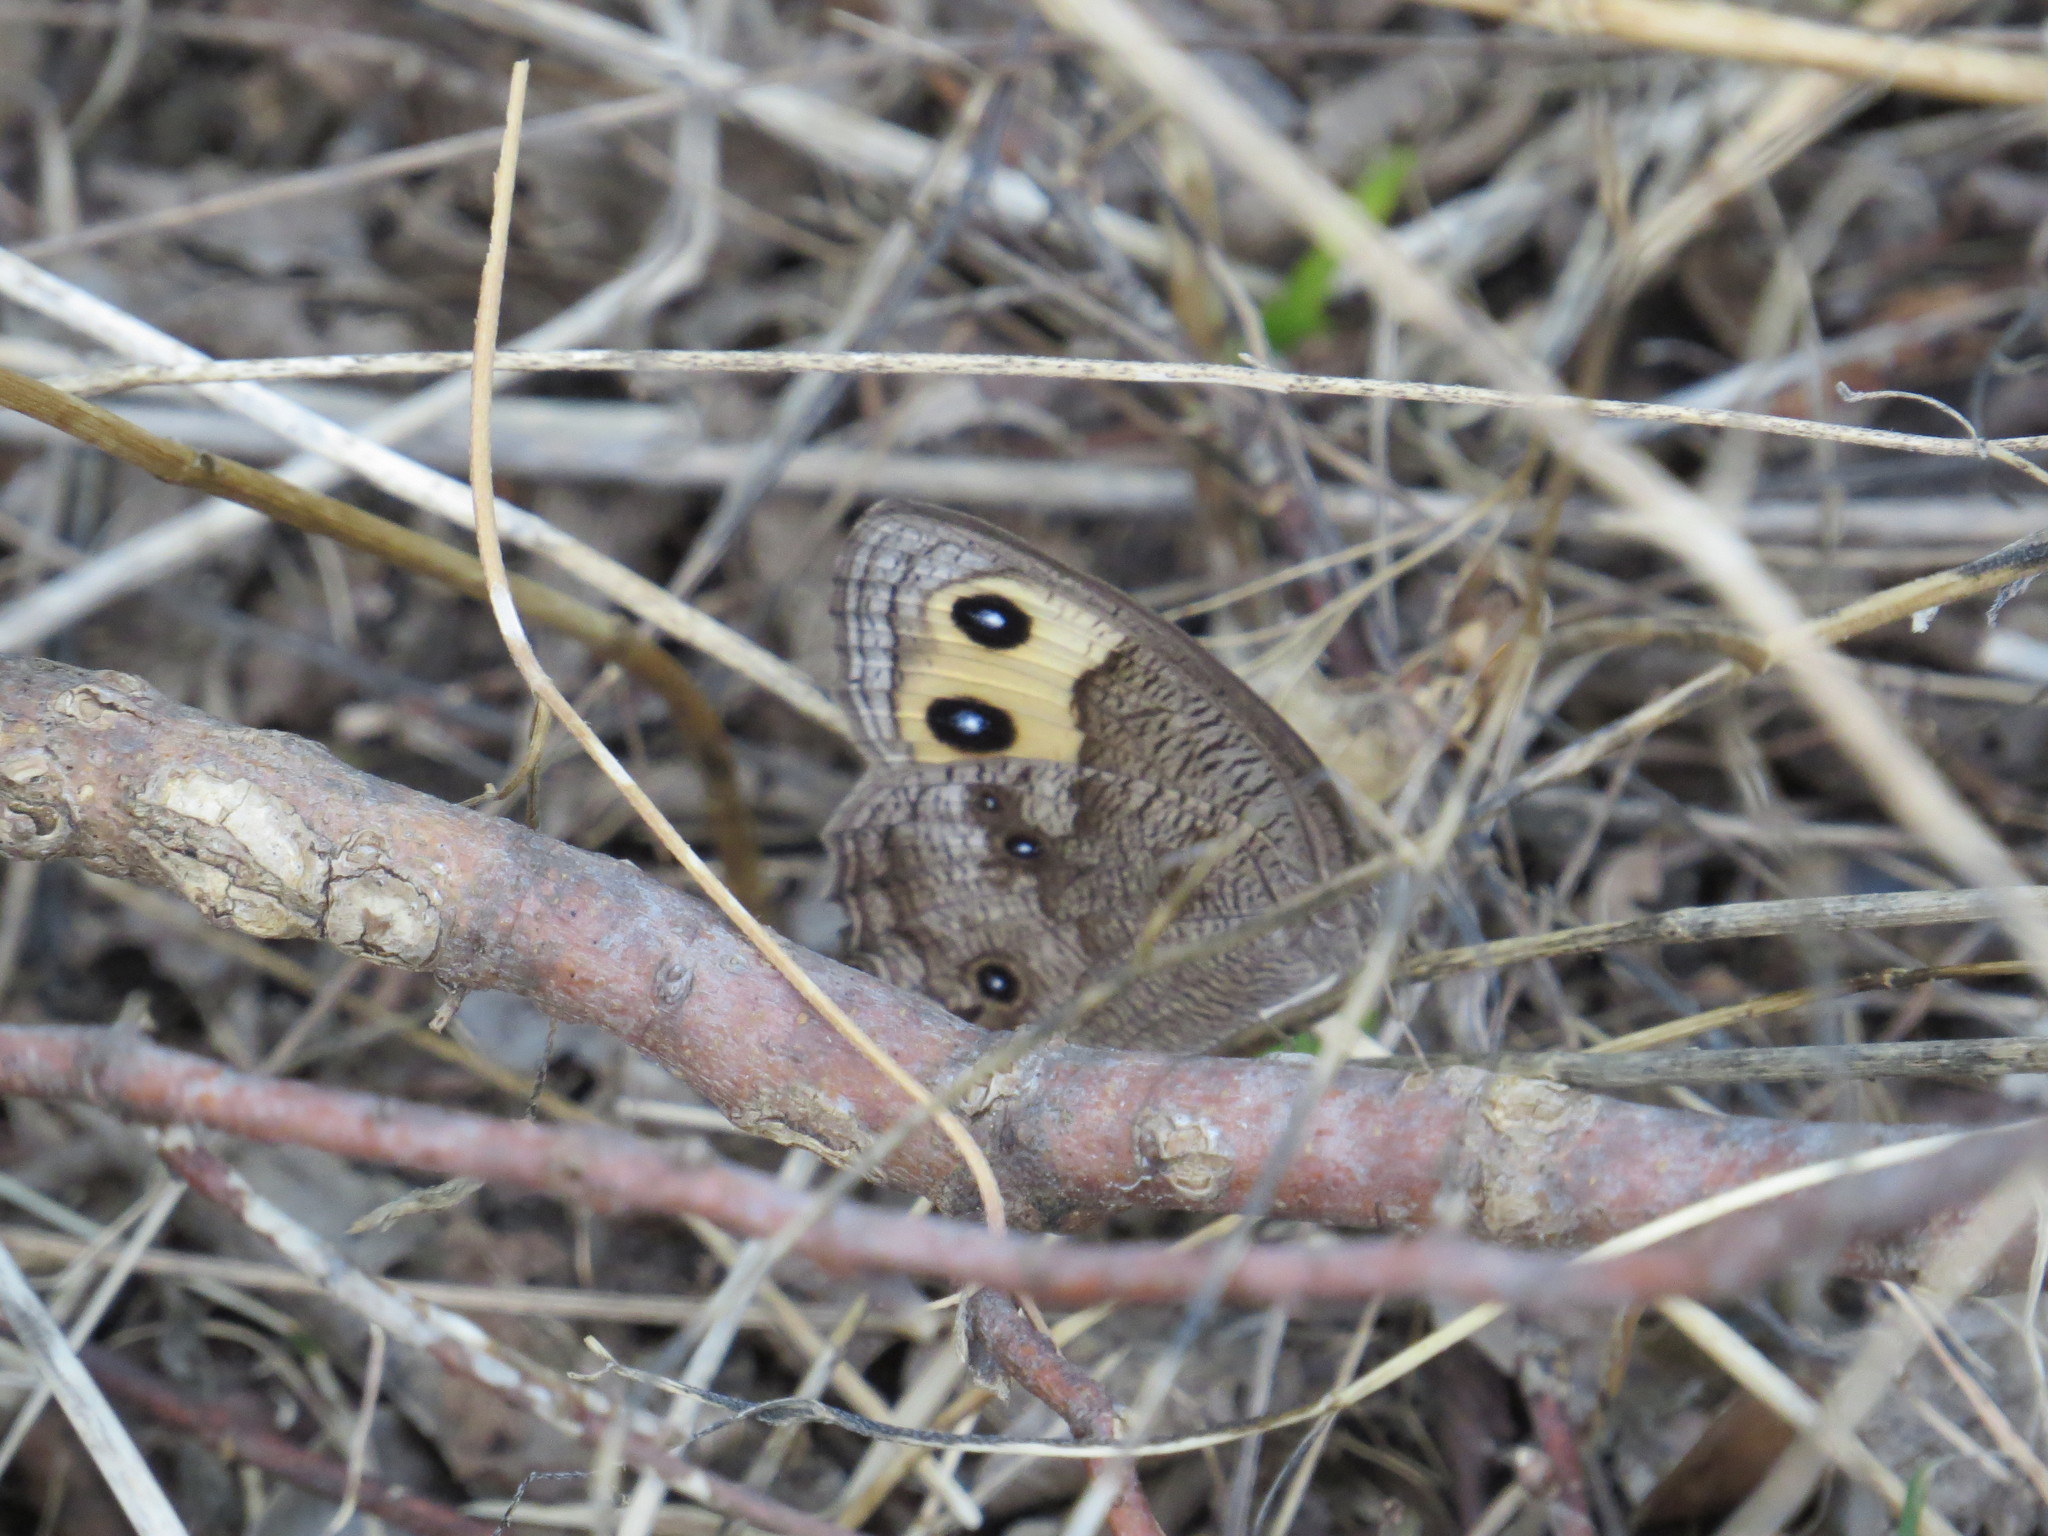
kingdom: Animalia
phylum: Arthropoda
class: Insecta
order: Lepidoptera
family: Nymphalidae
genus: Cercyonis
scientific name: Cercyonis pegala
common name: Common wood-nymph
